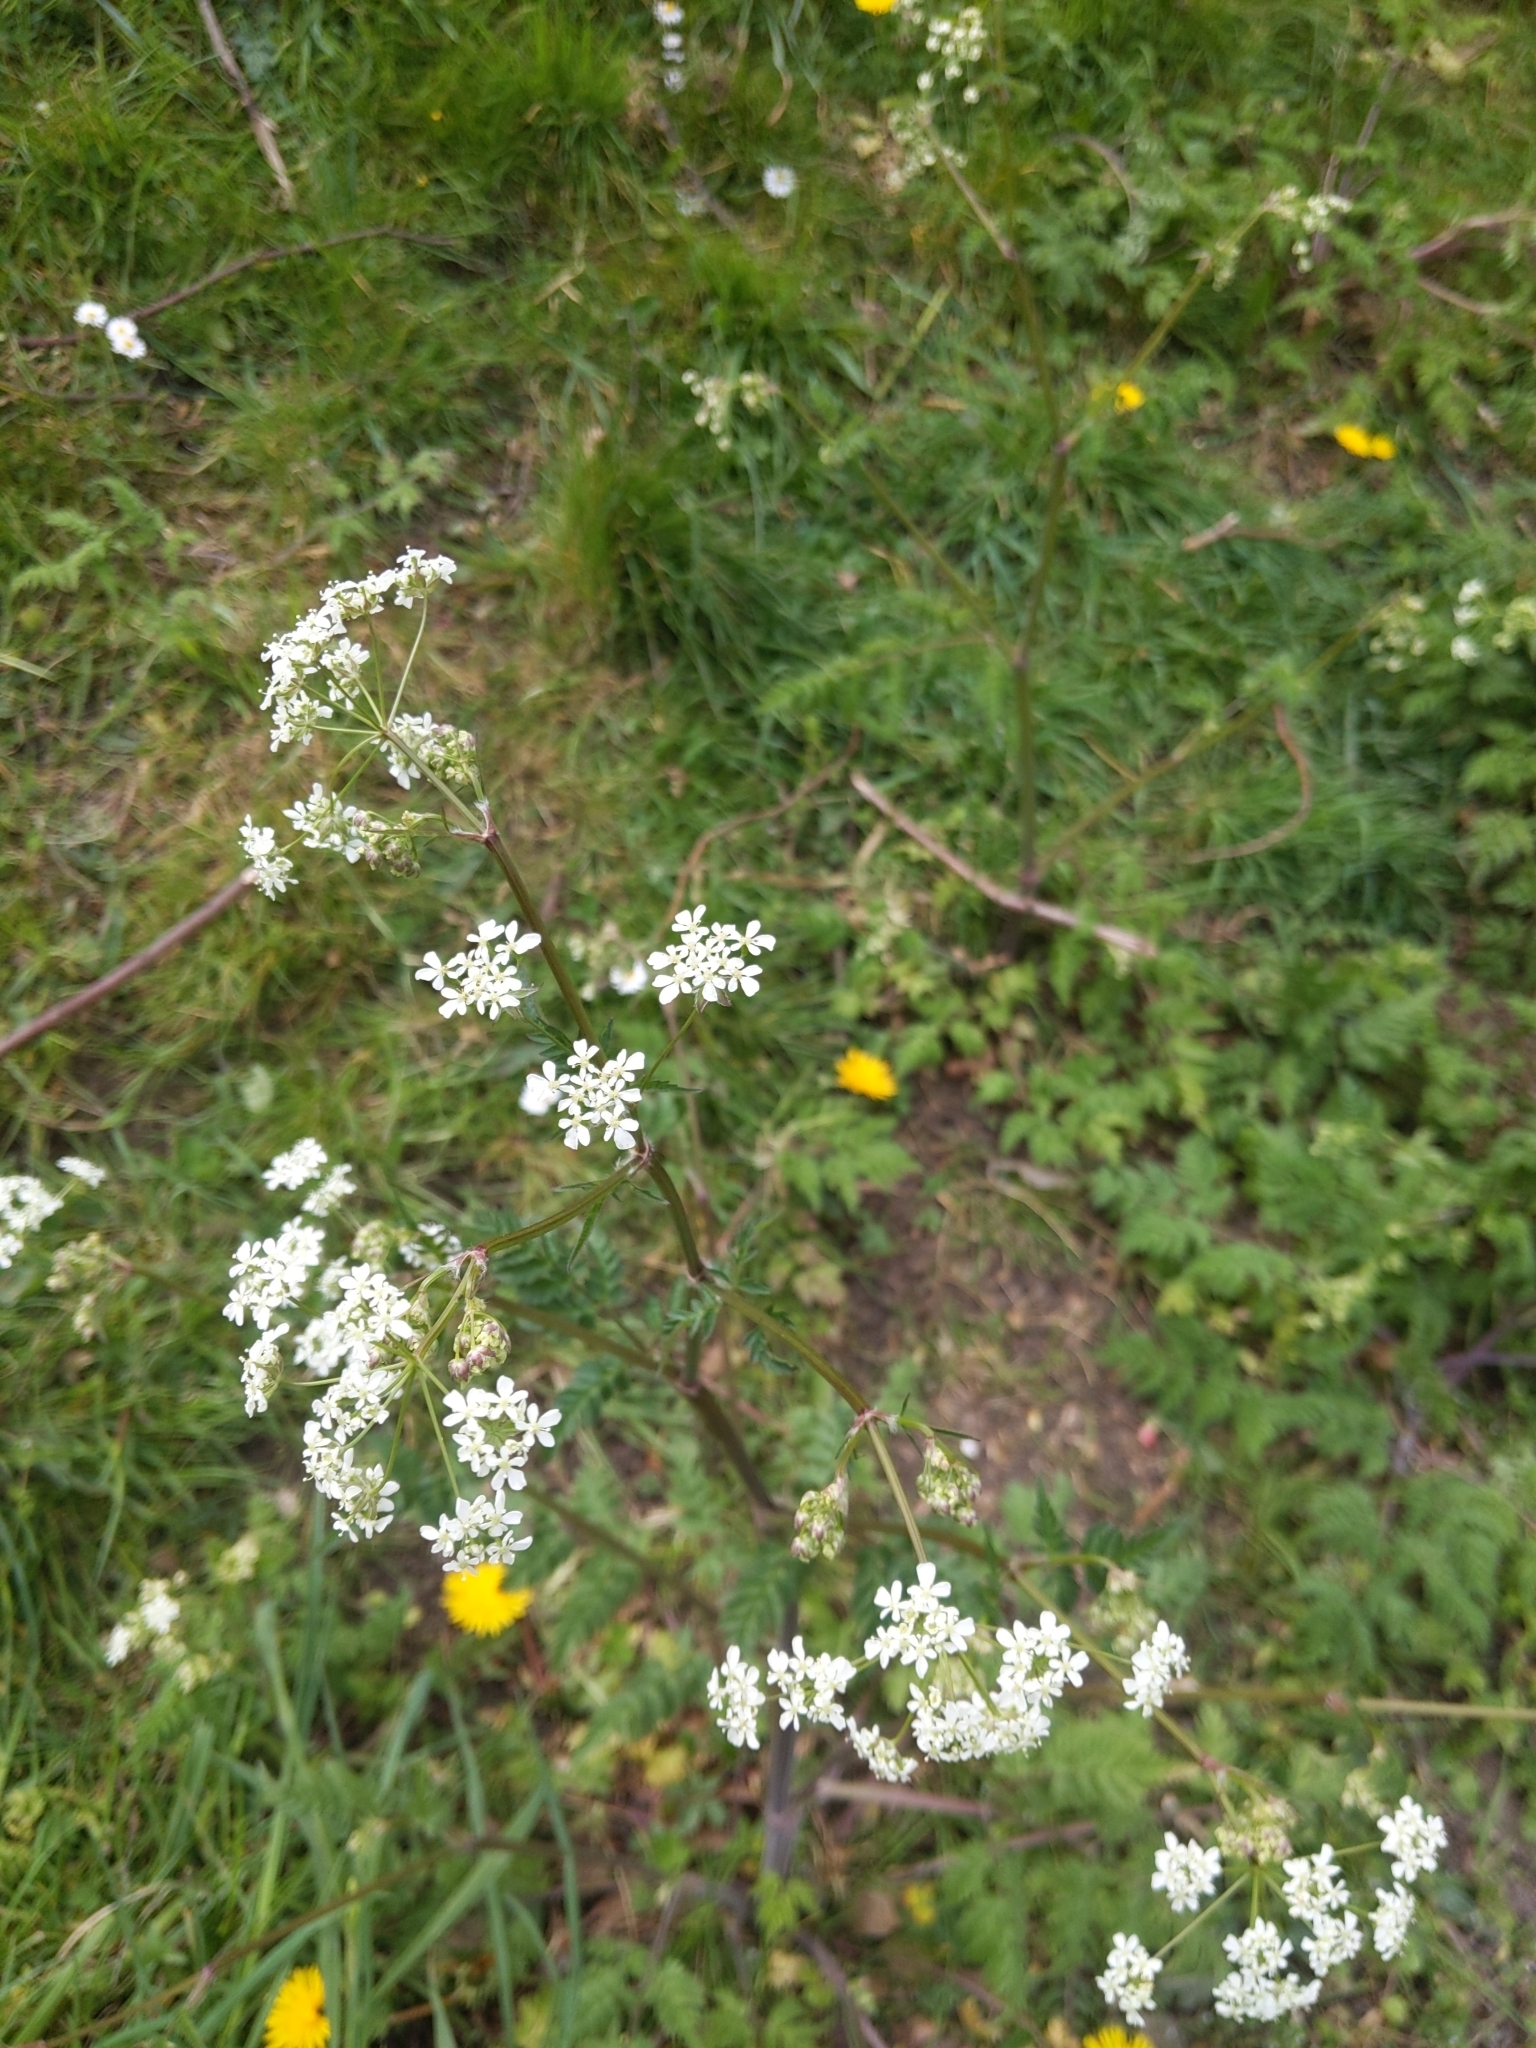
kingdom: Plantae
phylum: Tracheophyta
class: Magnoliopsida
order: Apiales
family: Apiaceae
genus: Anthriscus
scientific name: Anthriscus sylvestris
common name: Cow parsley
